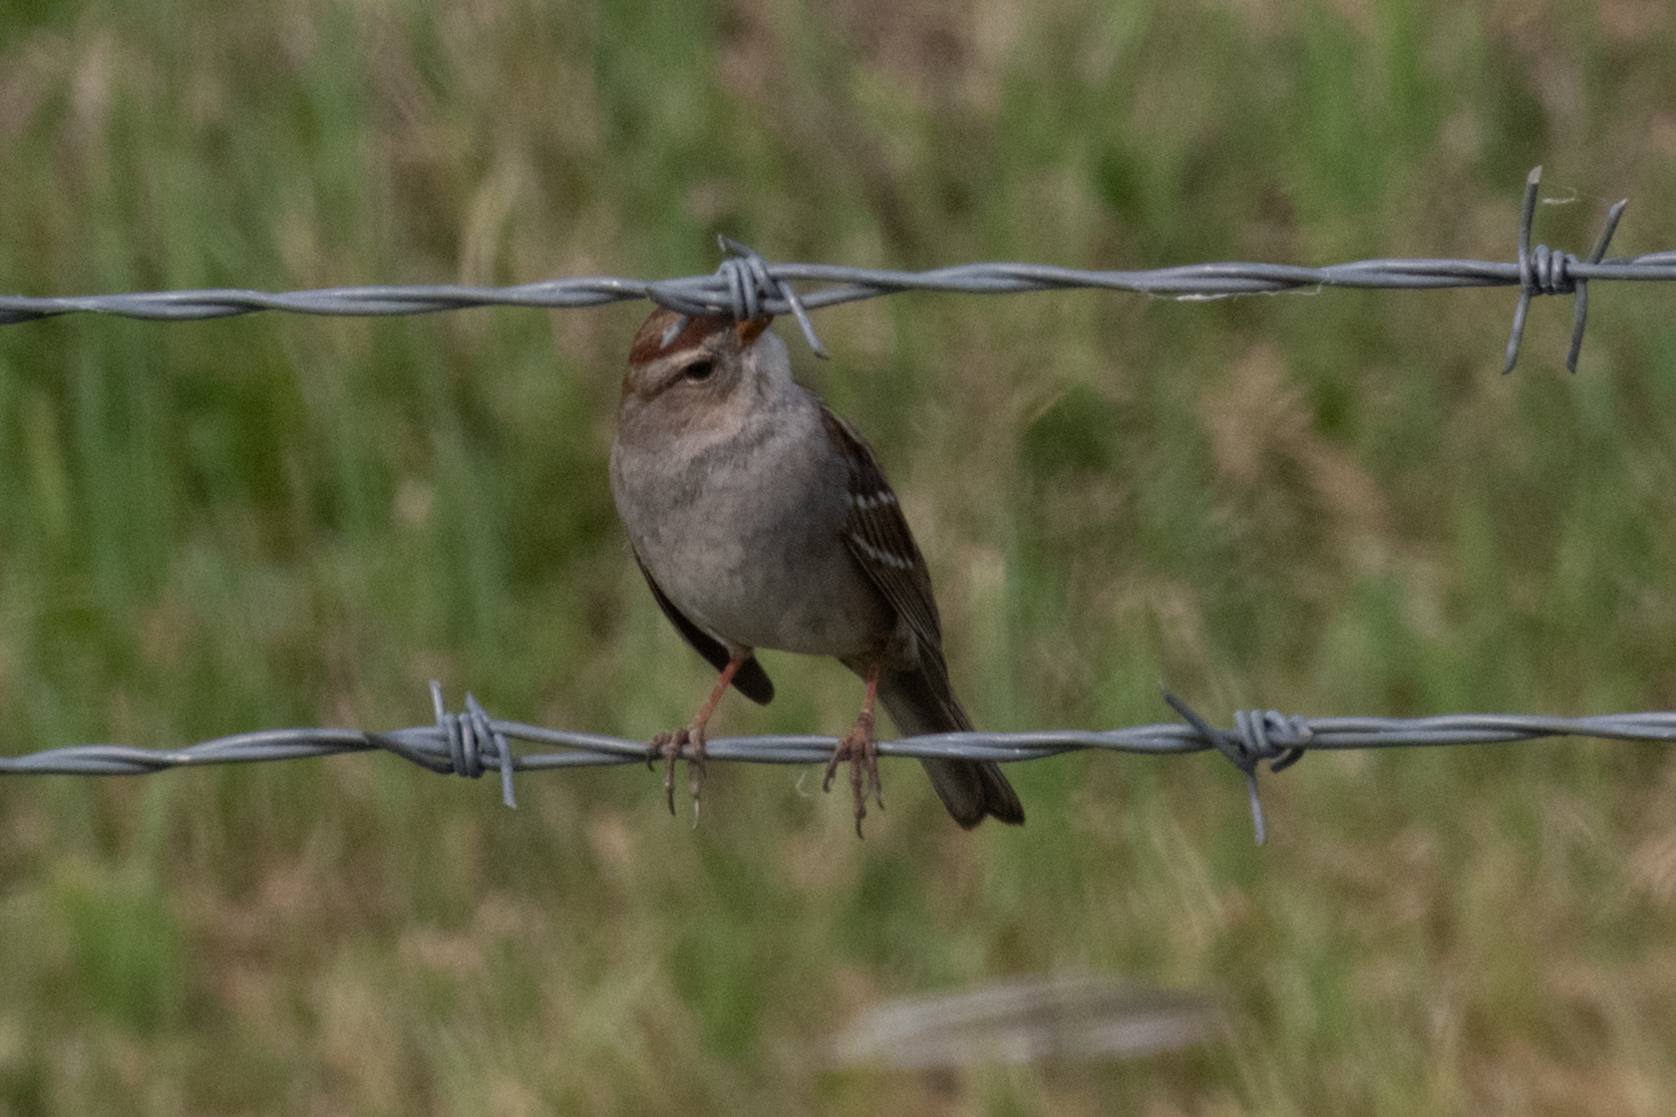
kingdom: Animalia
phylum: Chordata
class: Aves
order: Passeriformes
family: Passerellidae
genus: Zonotrichia
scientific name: Zonotrichia leucophrys
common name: White-crowned sparrow
